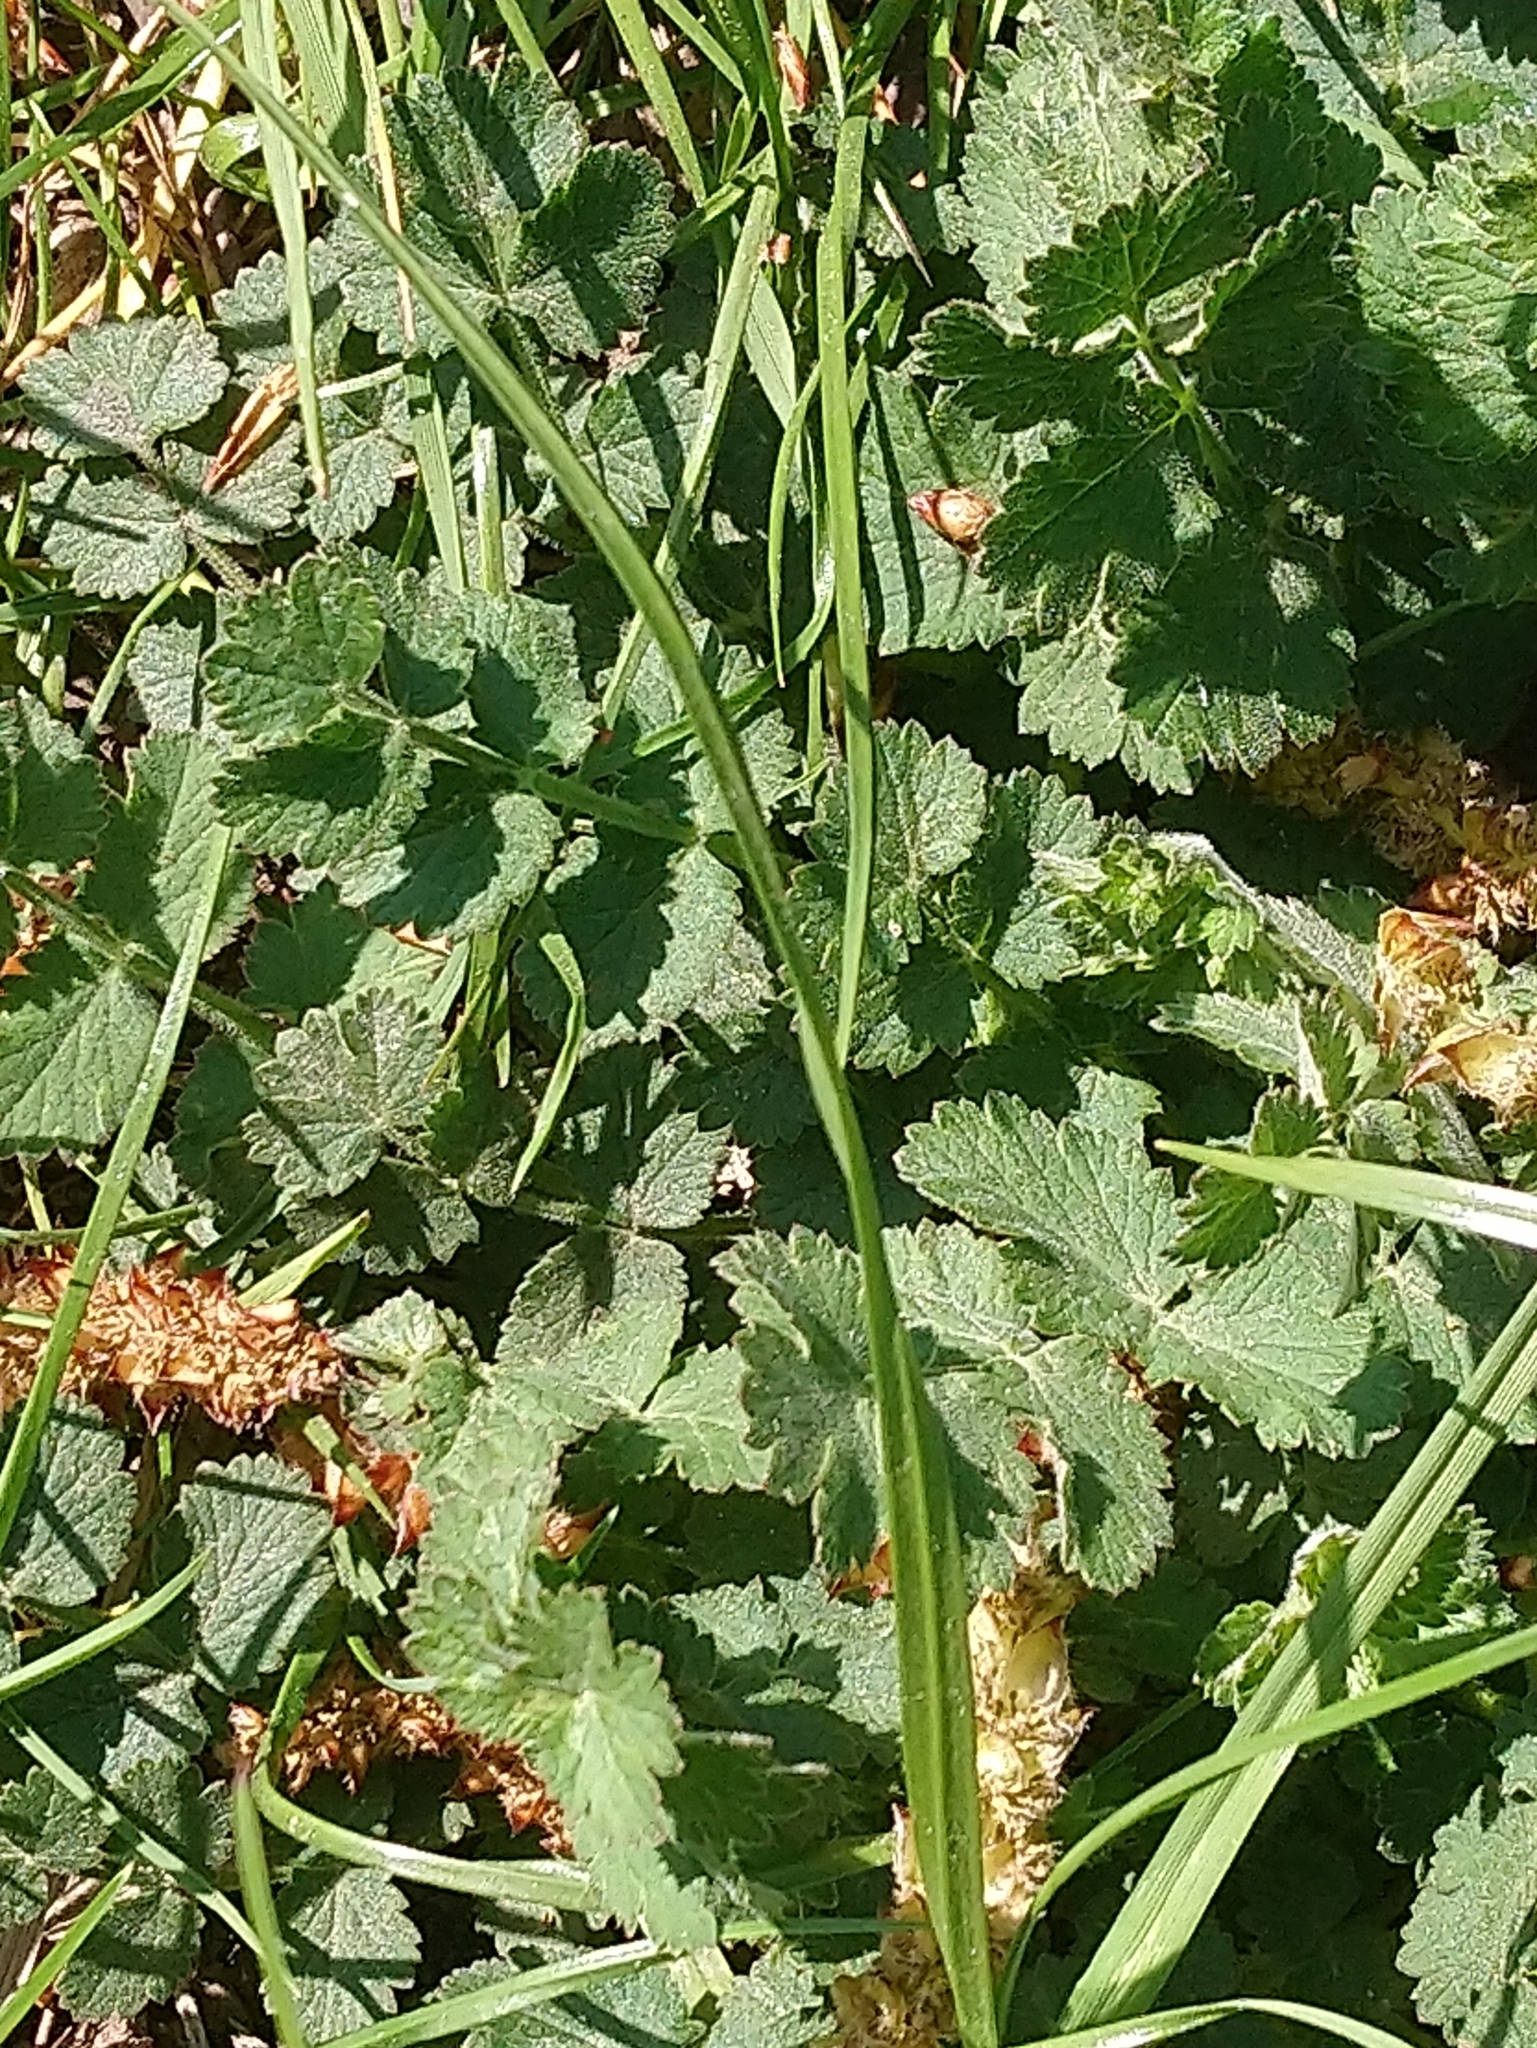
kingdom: Plantae
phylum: Tracheophyta
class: Magnoliopsida
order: Apiales
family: Apiaceae
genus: Pimpinella
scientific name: Pimpinella saxifraga
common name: Burnet-saxifrage
